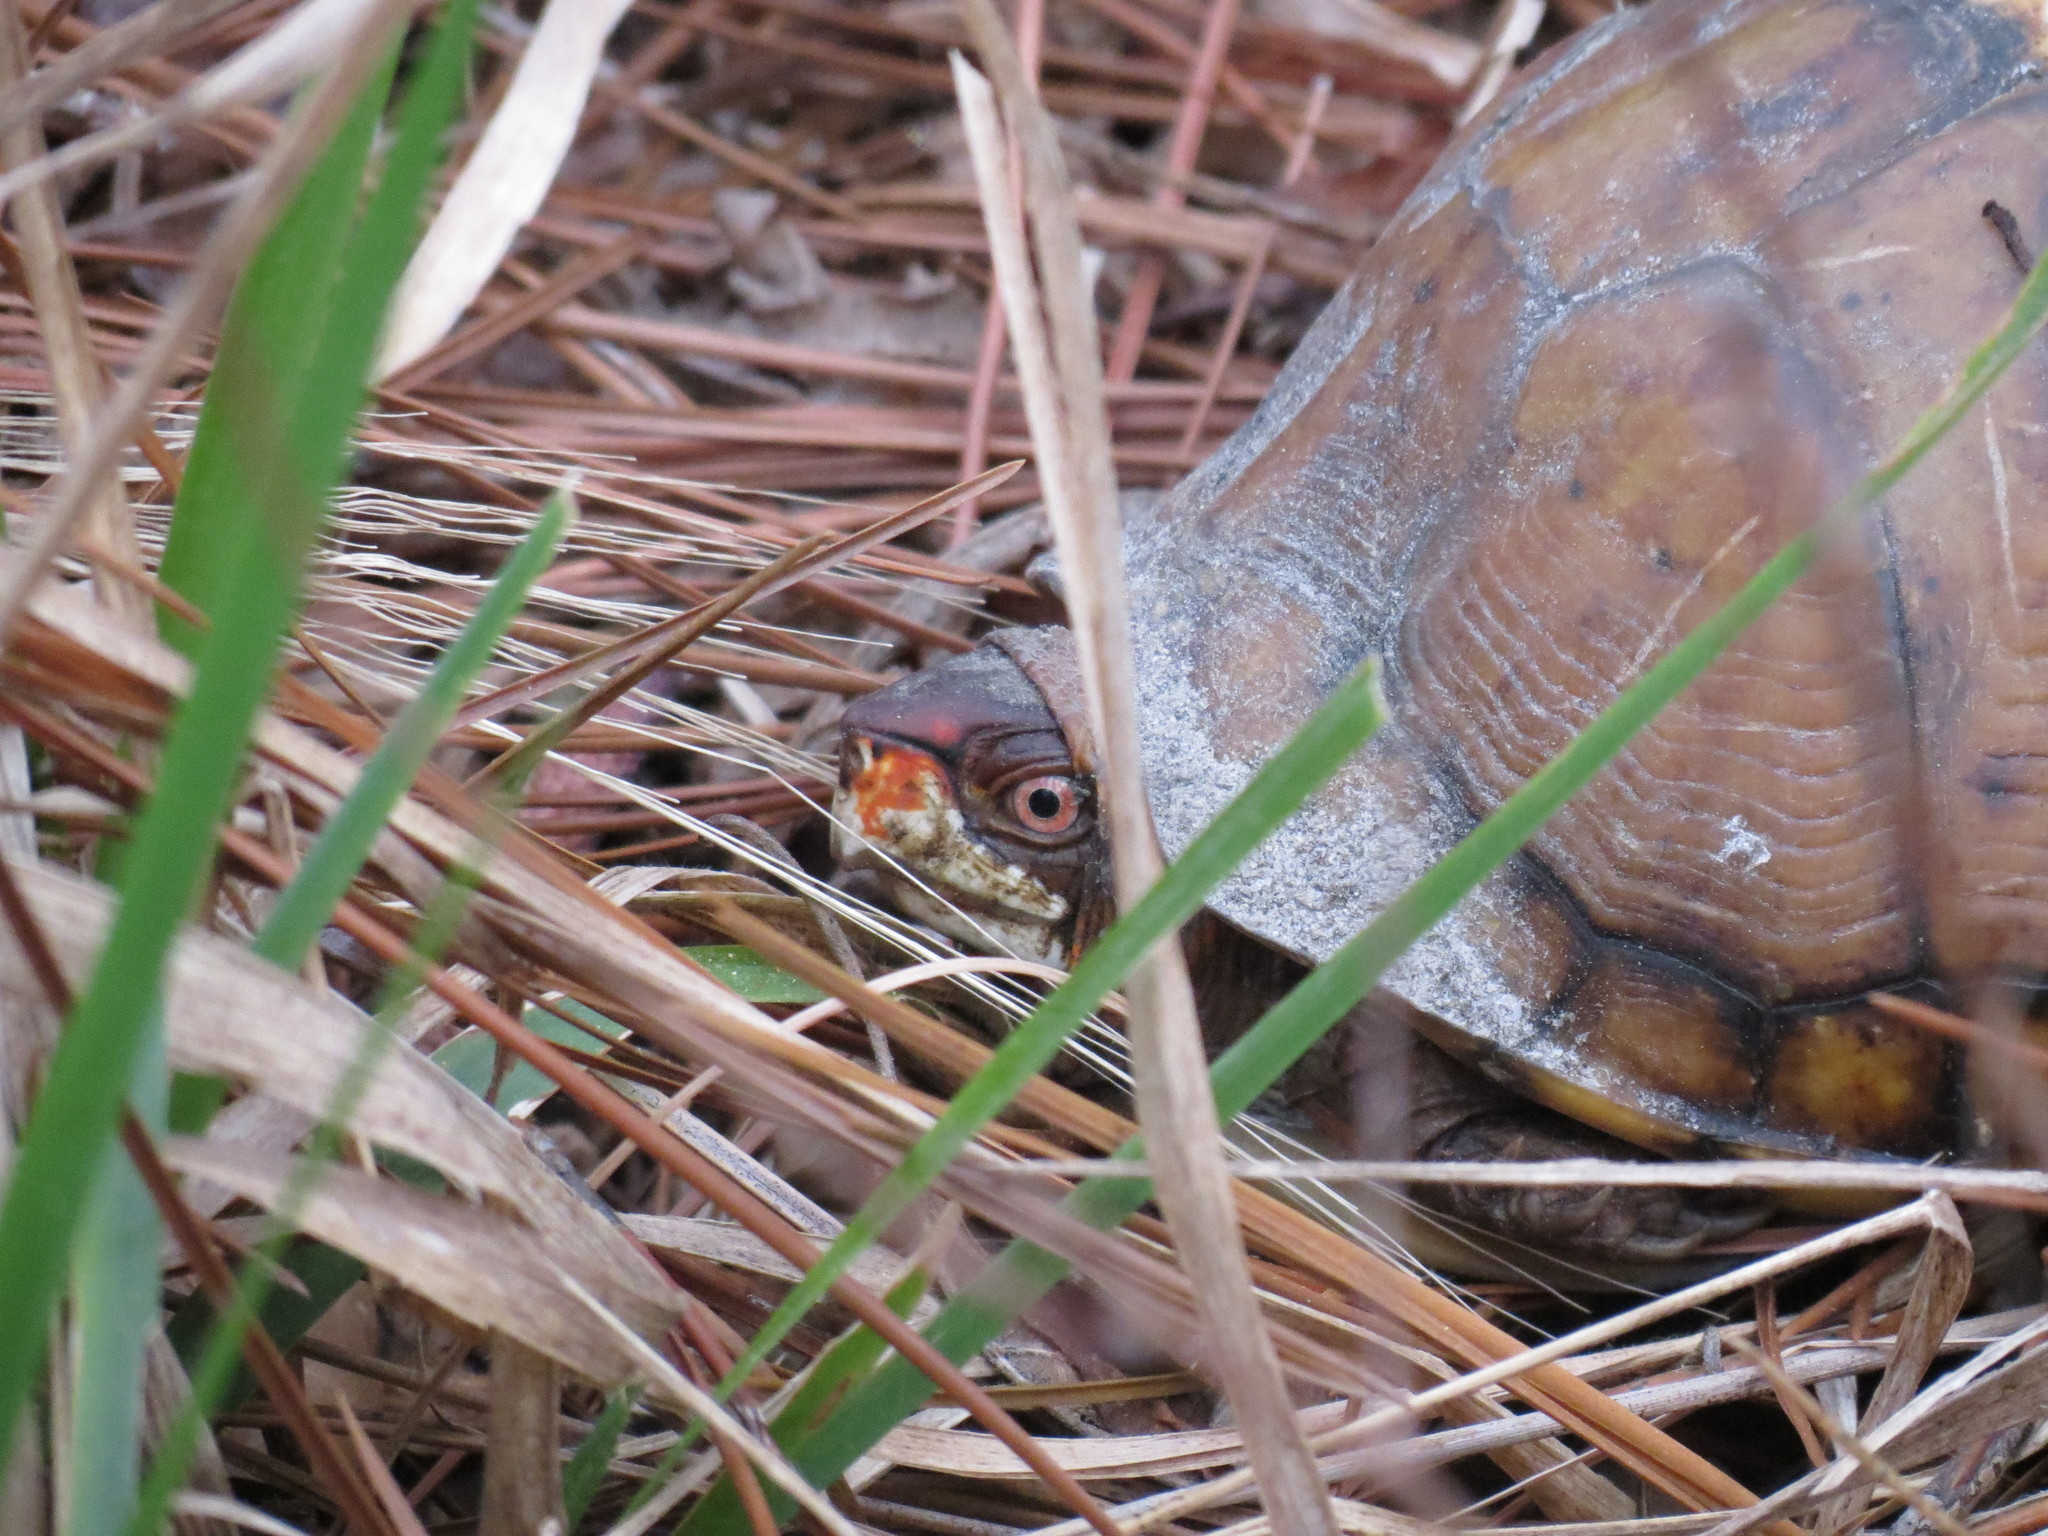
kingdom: Animalia
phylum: Chordata
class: Testudines
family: Emydidae
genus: Terrapene
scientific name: Terrapene carolina
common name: Common box turtle
